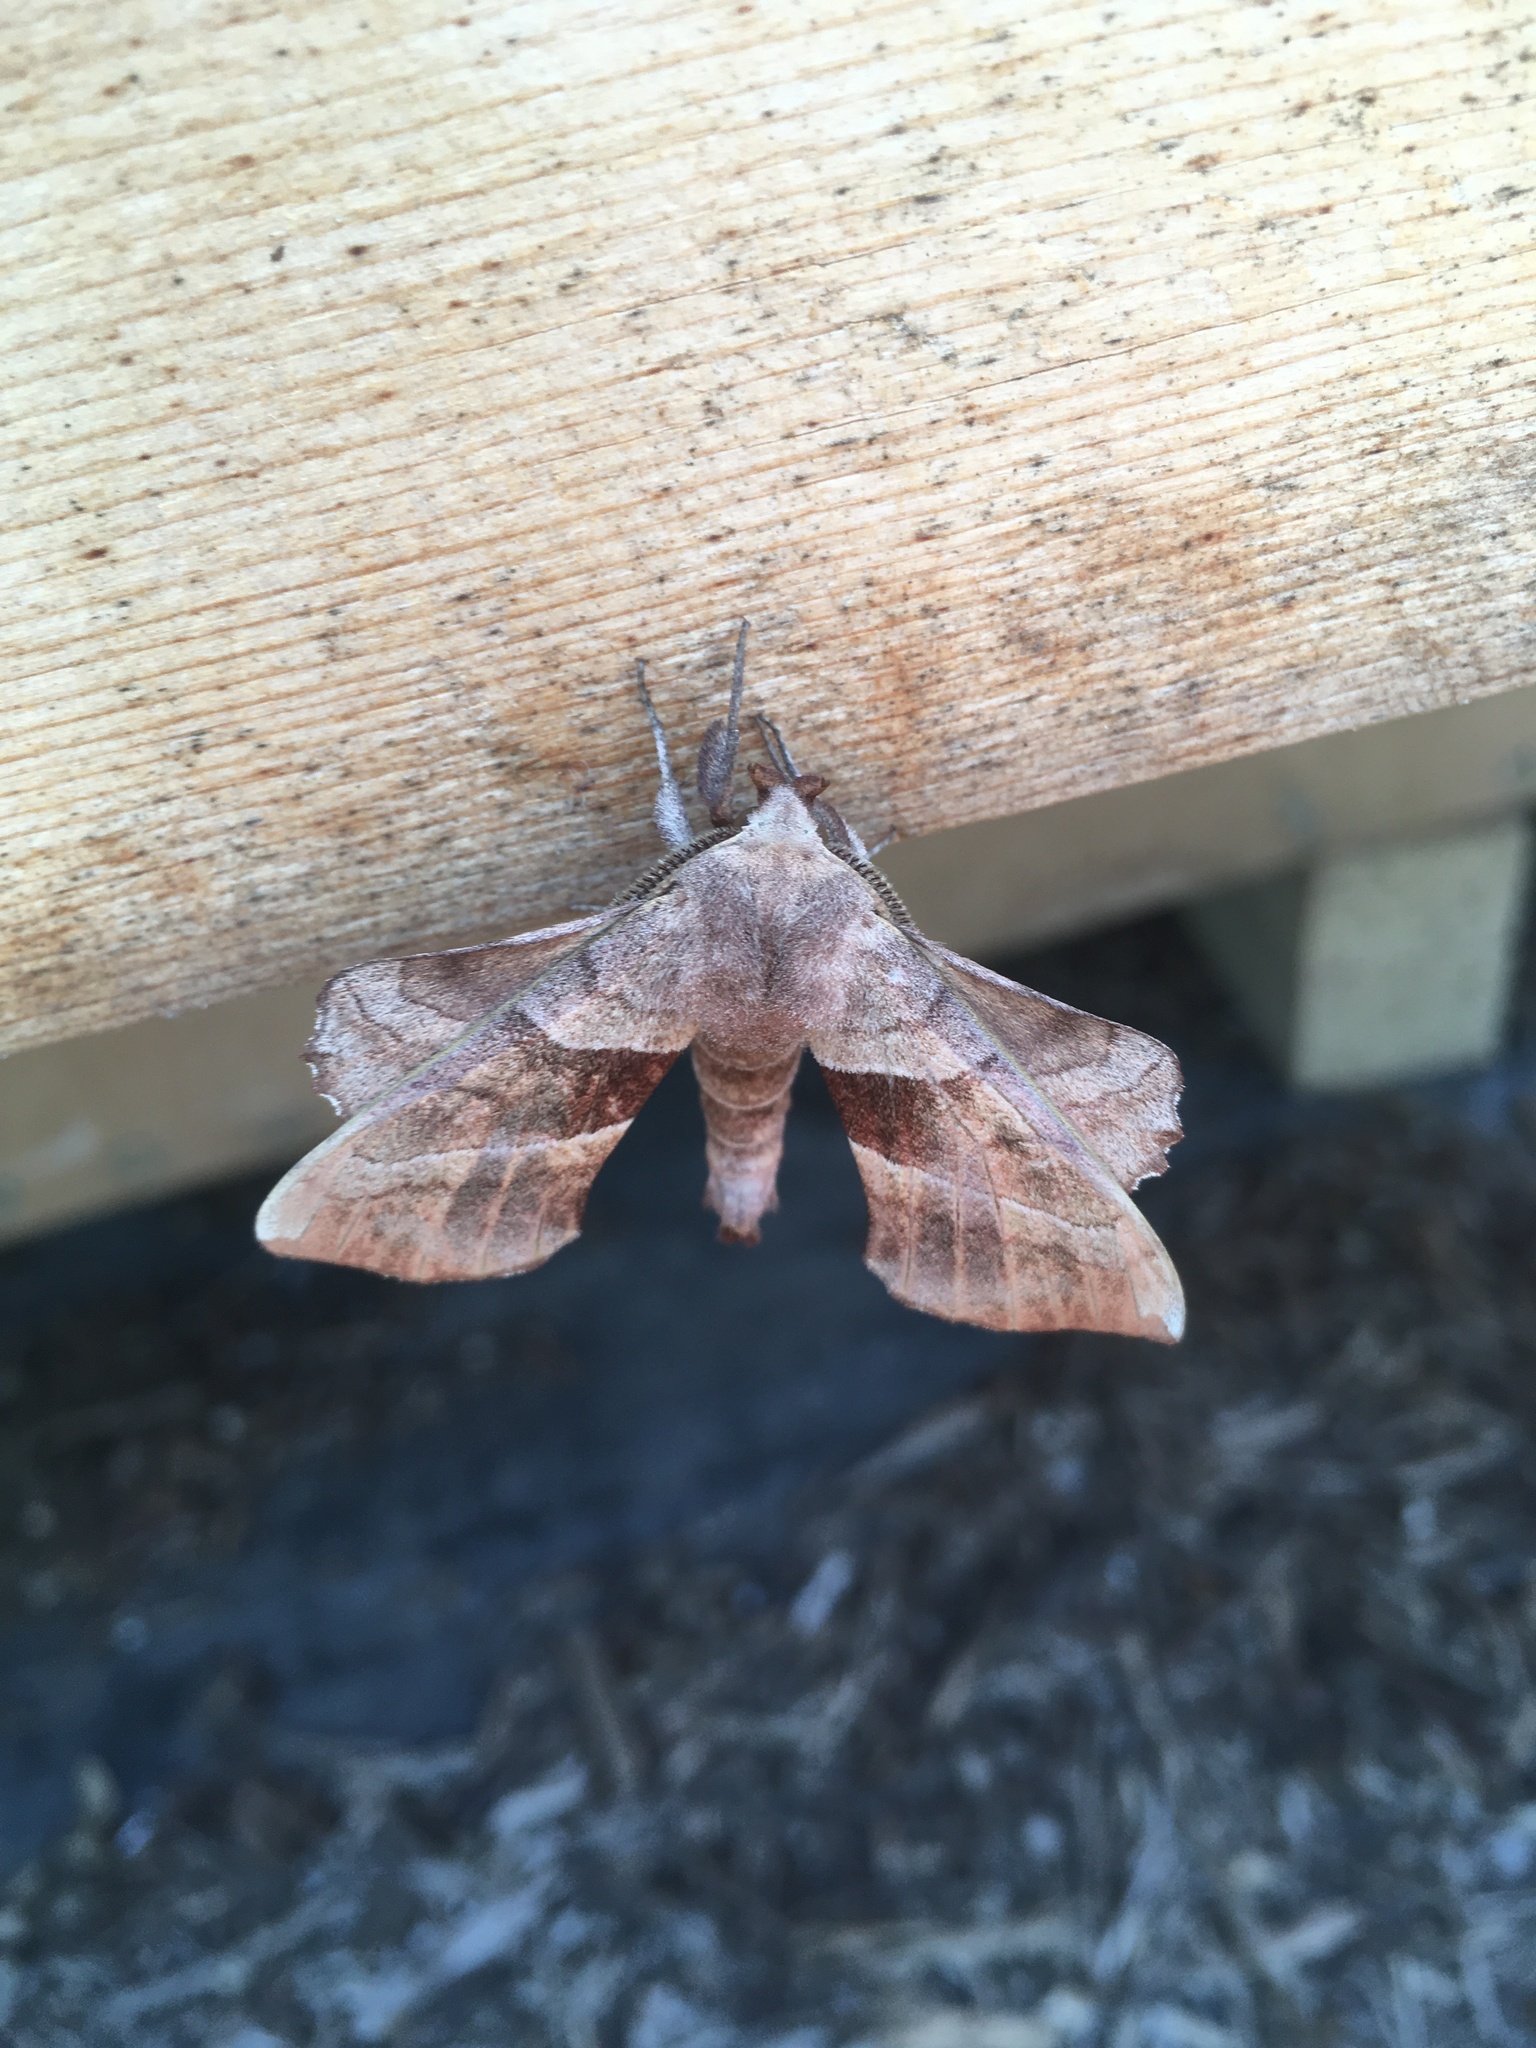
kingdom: Animalia
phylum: Arthropoda
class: Insecta
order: Lepidoptera
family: Sphingidae
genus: Amorpha
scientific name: Amorpha juglandis
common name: Walnut sphinx
